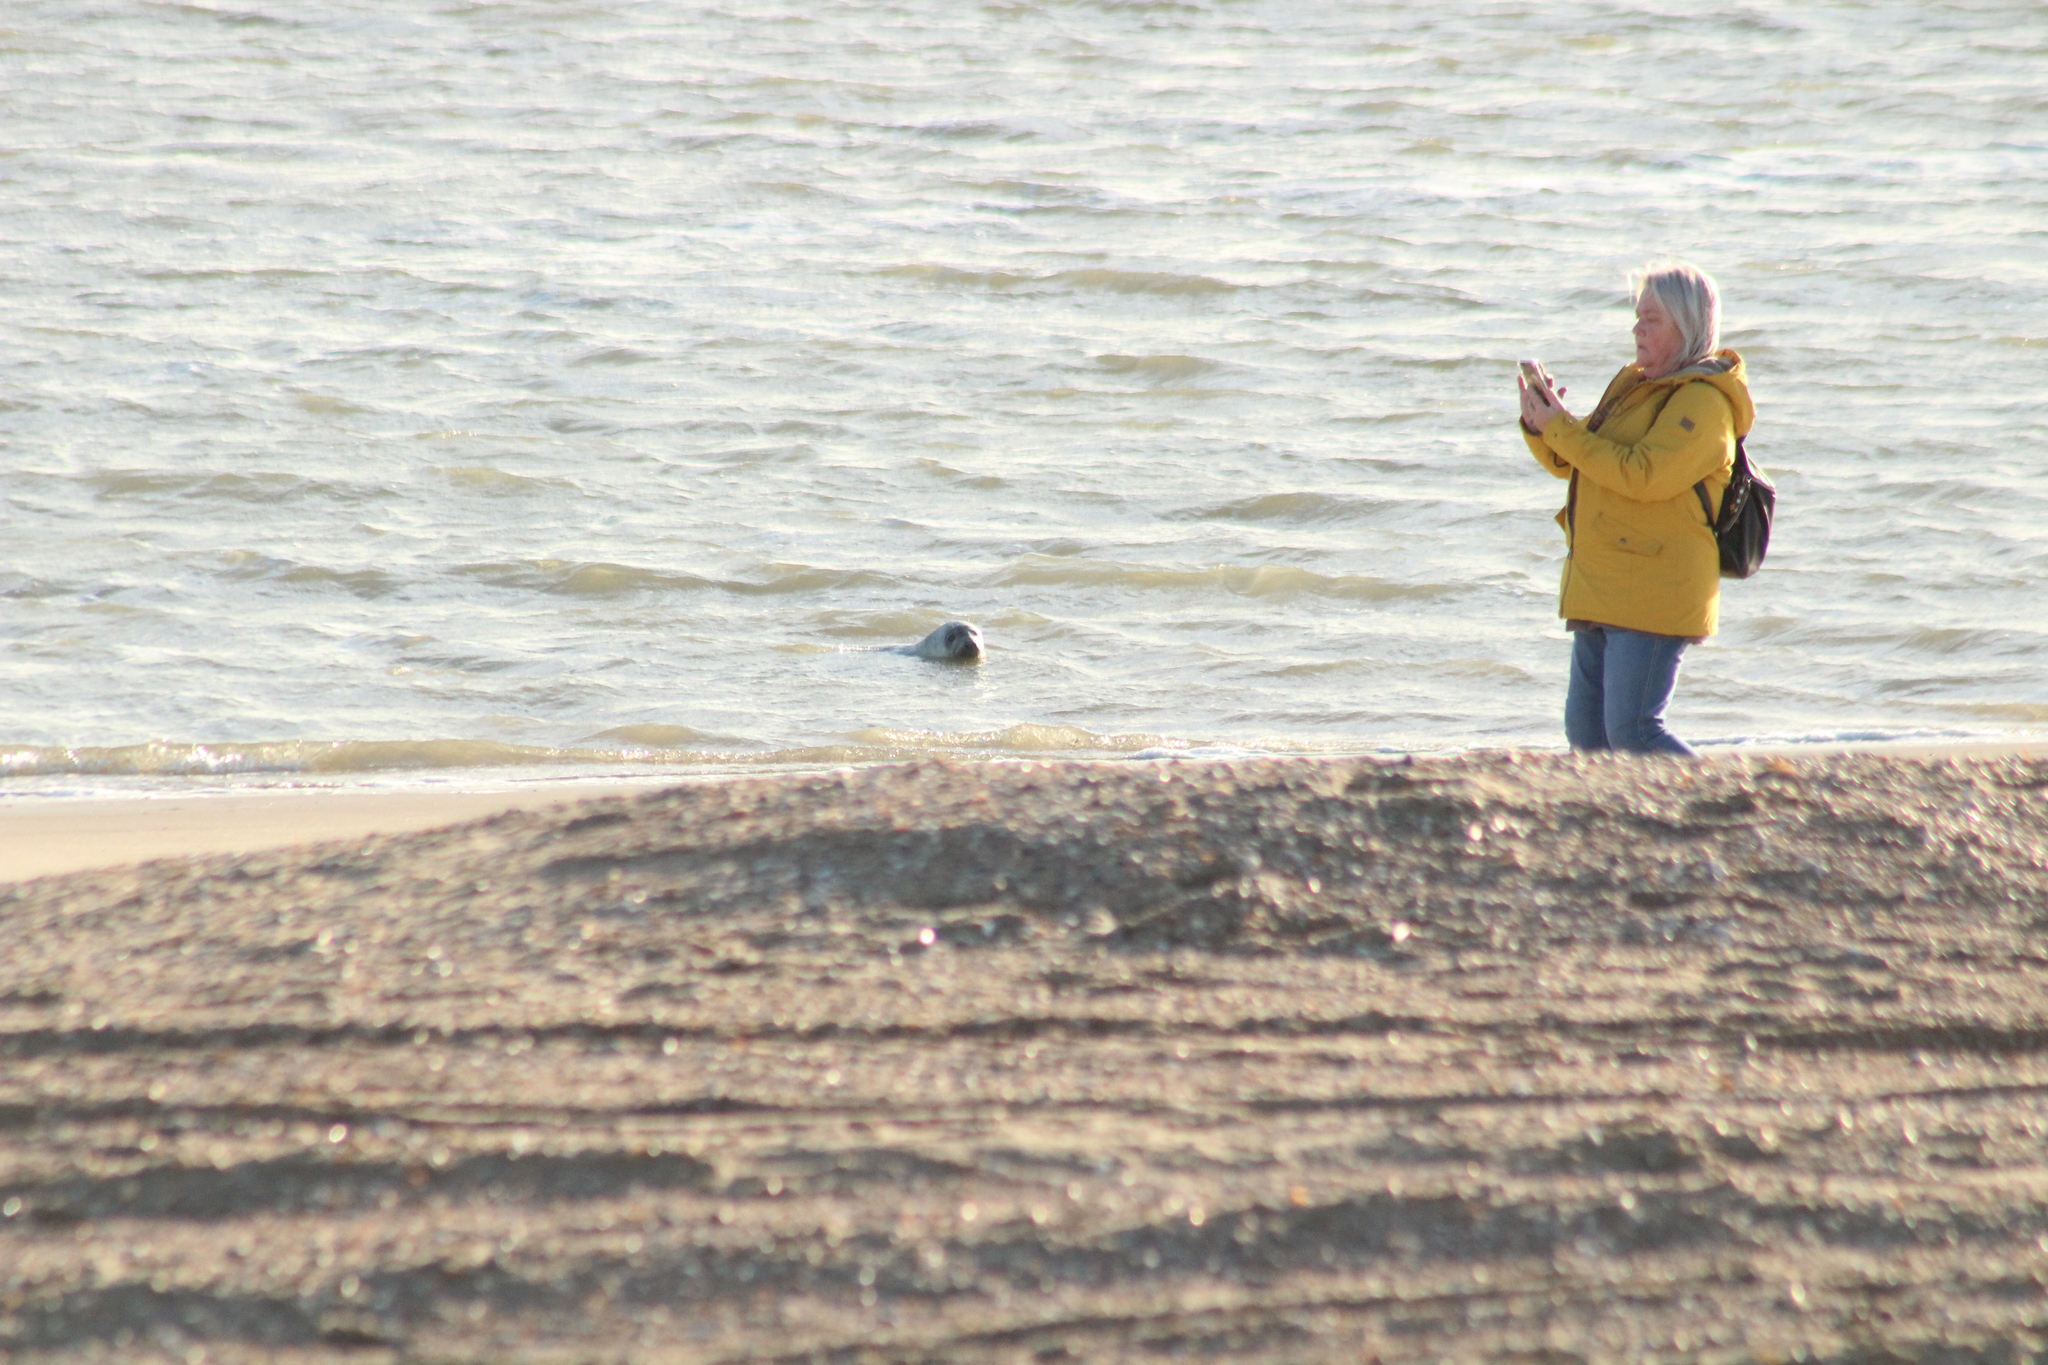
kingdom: Animalia
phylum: Chordata
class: Mammalia
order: Carnivora
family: Phocidae
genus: Halichoerus
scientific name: Halichoerus grypus
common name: Grey seal
